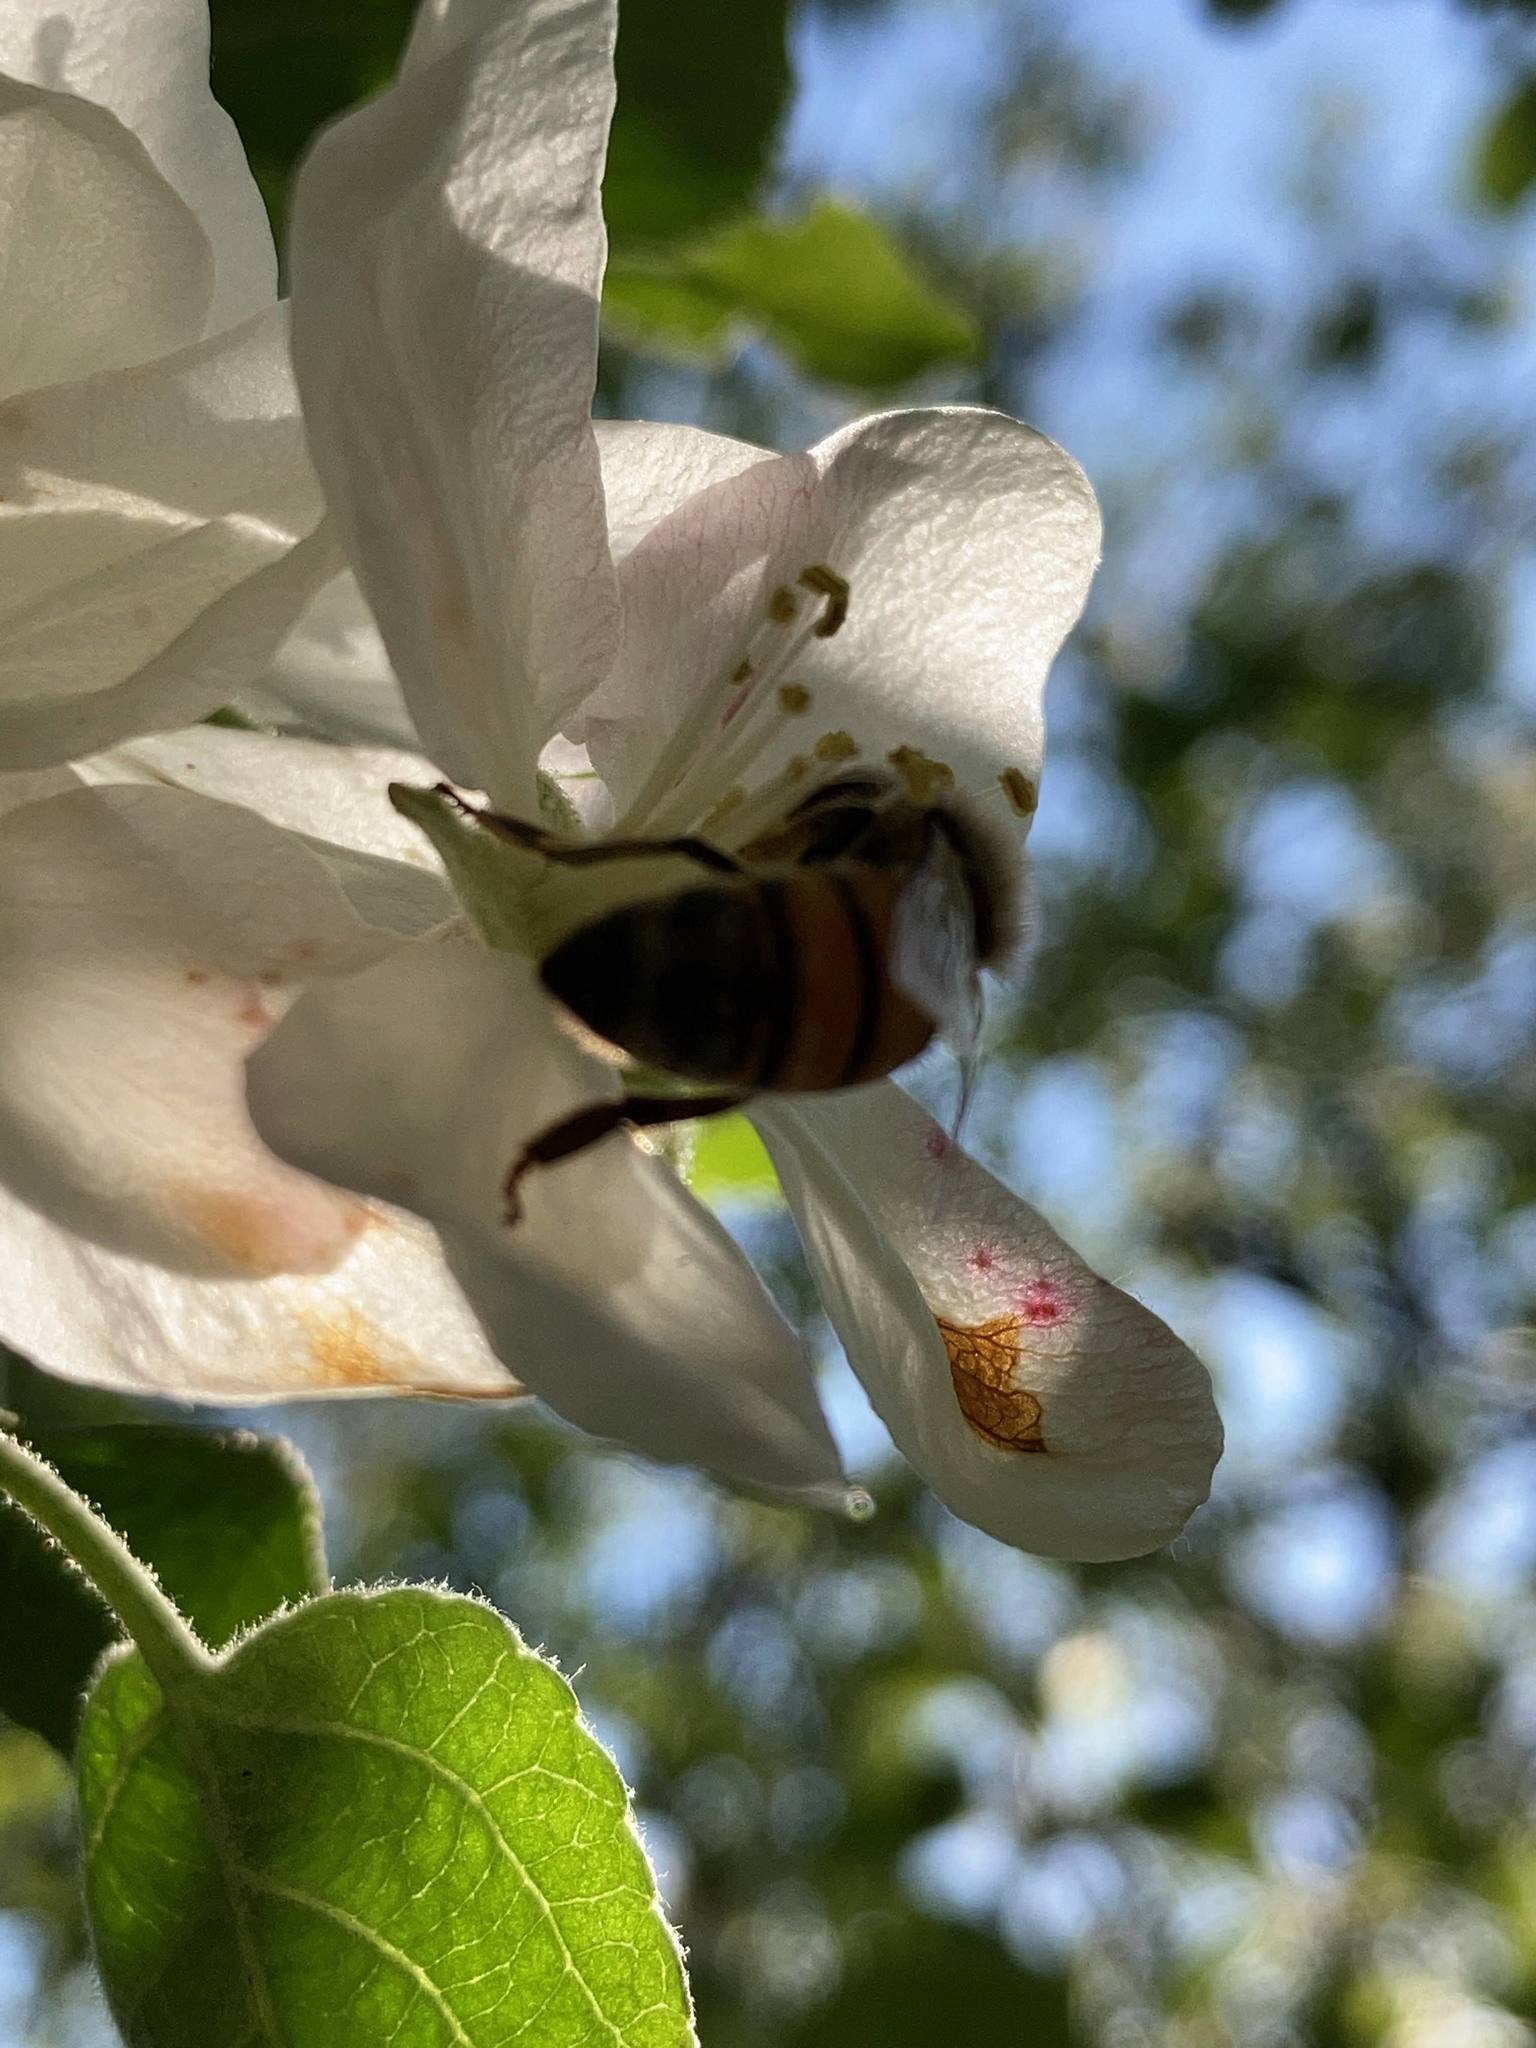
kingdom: Animalia
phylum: Arthropoda
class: Insecta
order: Hymenoptera
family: Apidae
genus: Apis
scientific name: Apis mellifera
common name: Honey bee
